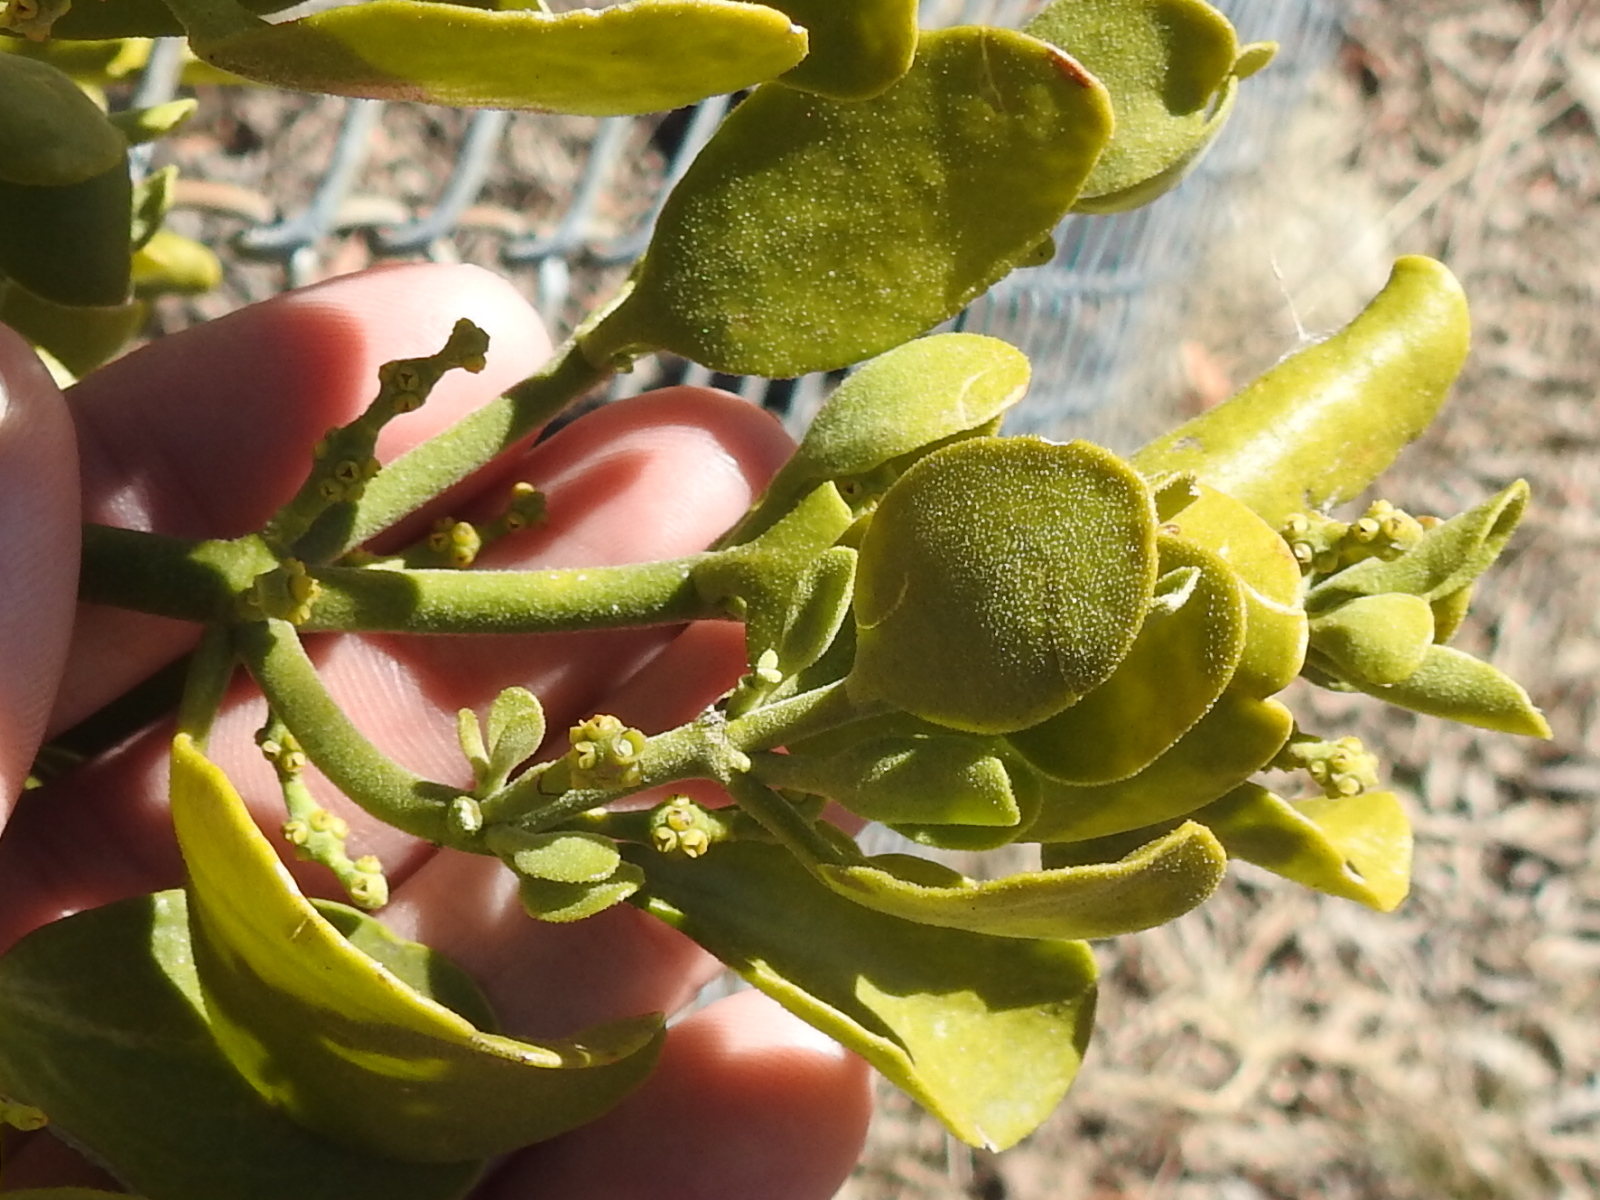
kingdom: Plantae
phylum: Tracheophyta
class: Magnoliopsida
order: Santalales
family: Viscaceae
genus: Phoradendron
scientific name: Phoradendron leucarpum
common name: Pacific mistletoe
